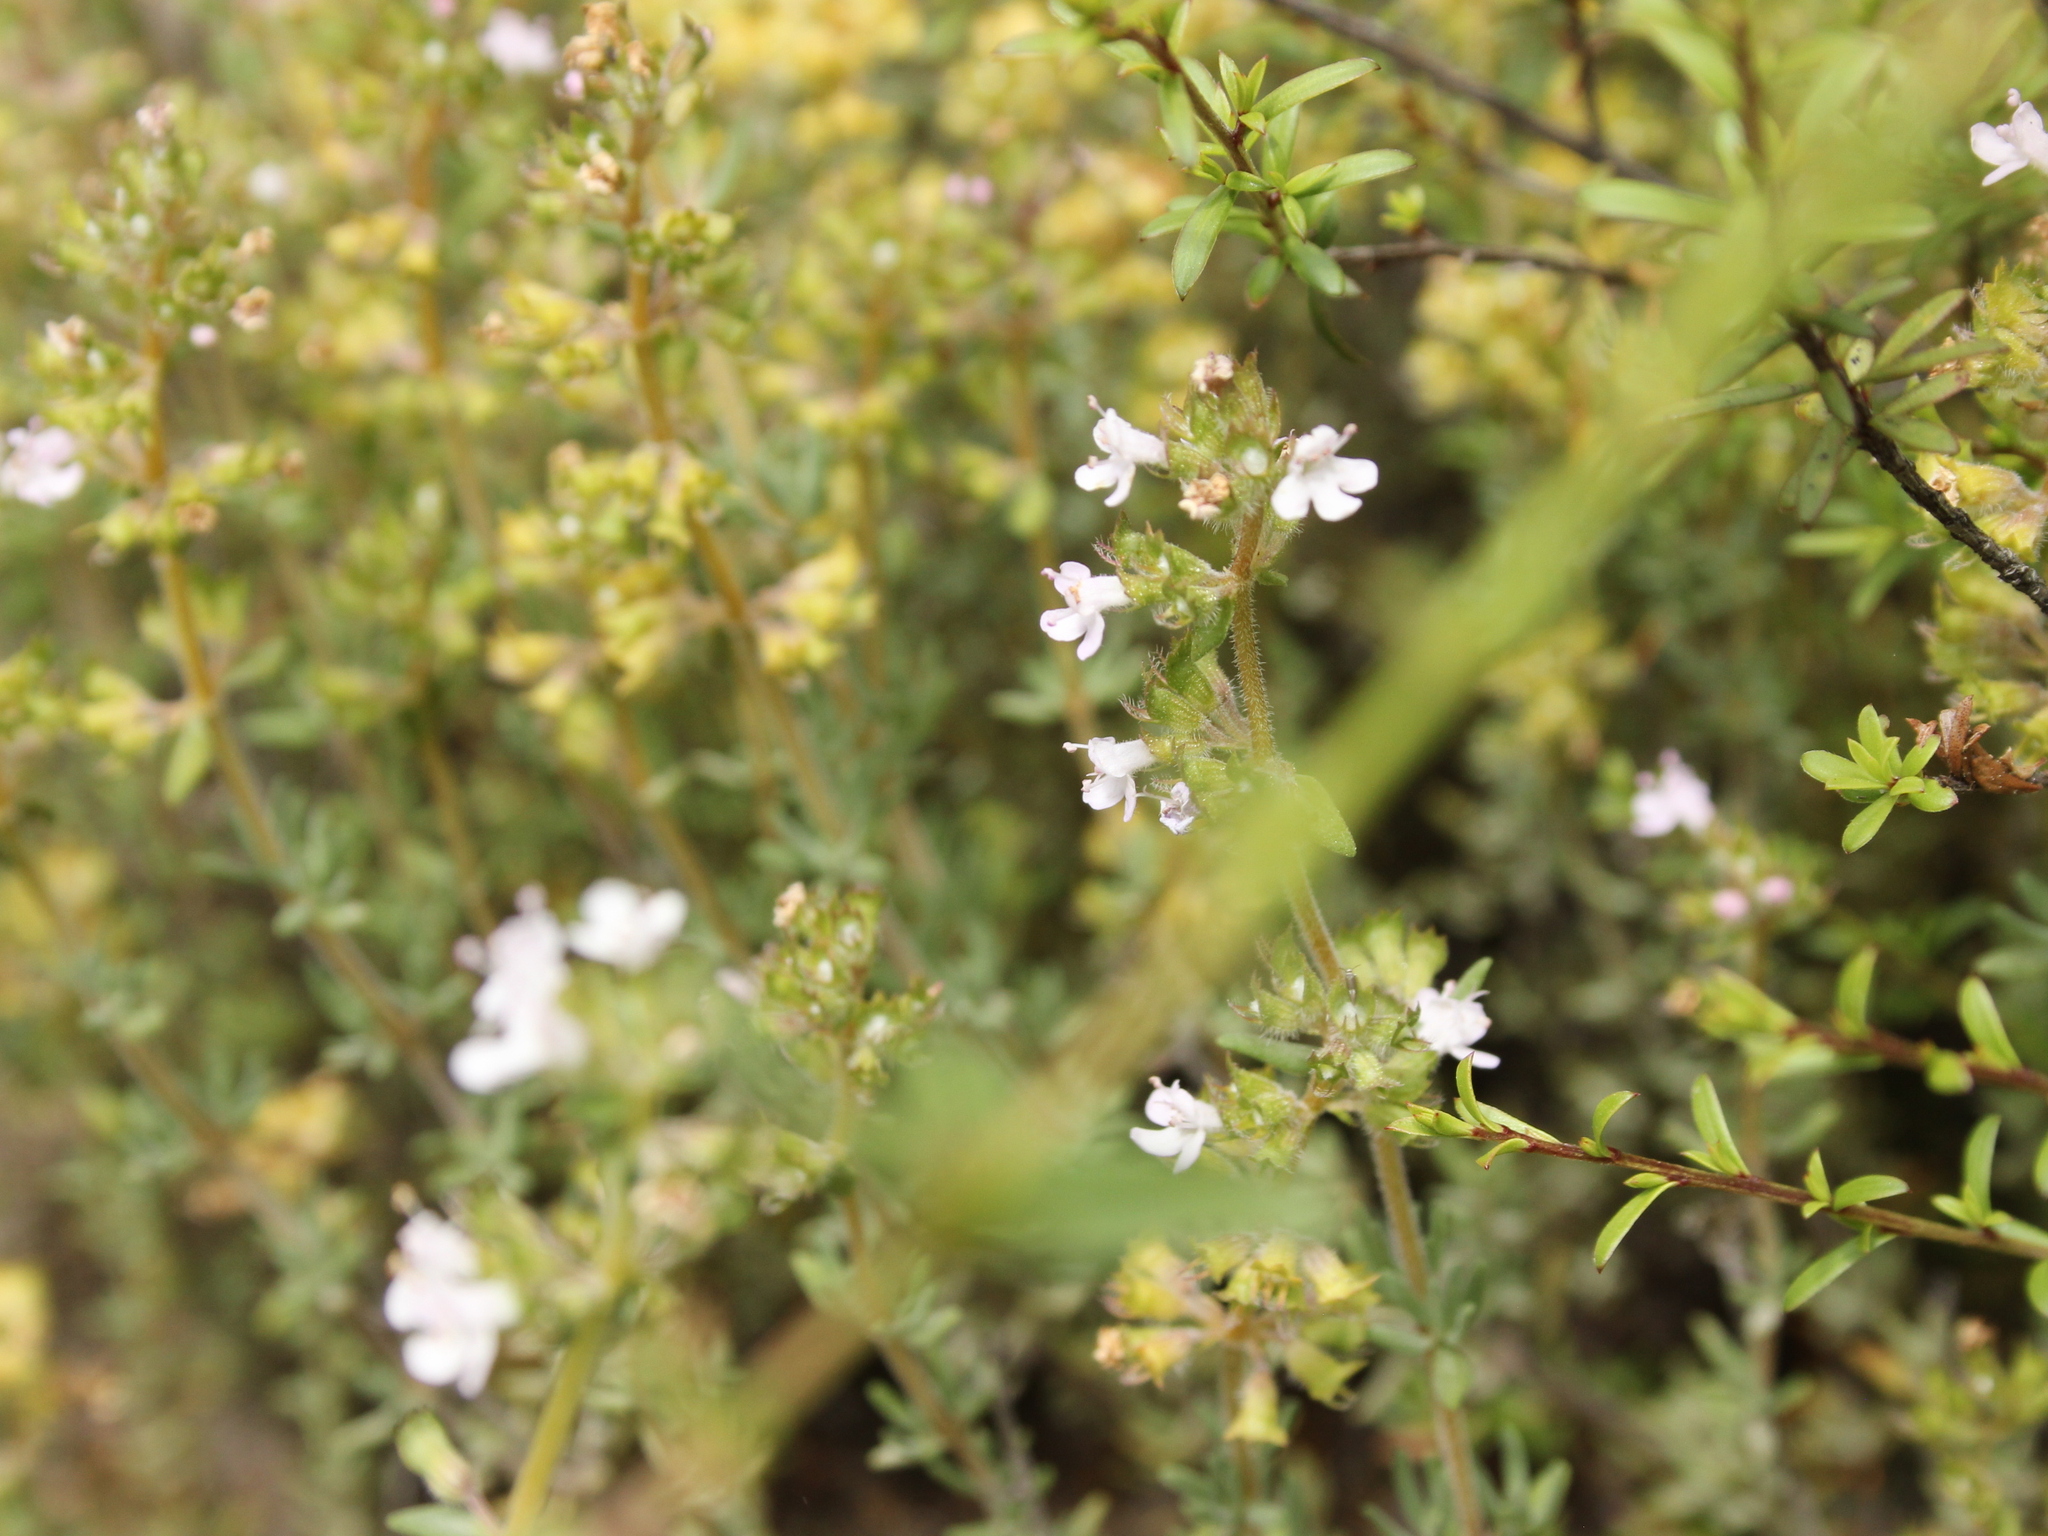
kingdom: Plantae
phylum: Tracheophyta
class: Magnoliopsida
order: Lamiales
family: Lamiaceae
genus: Thymus
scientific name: Thymus vulgaris
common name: Garden thyme
